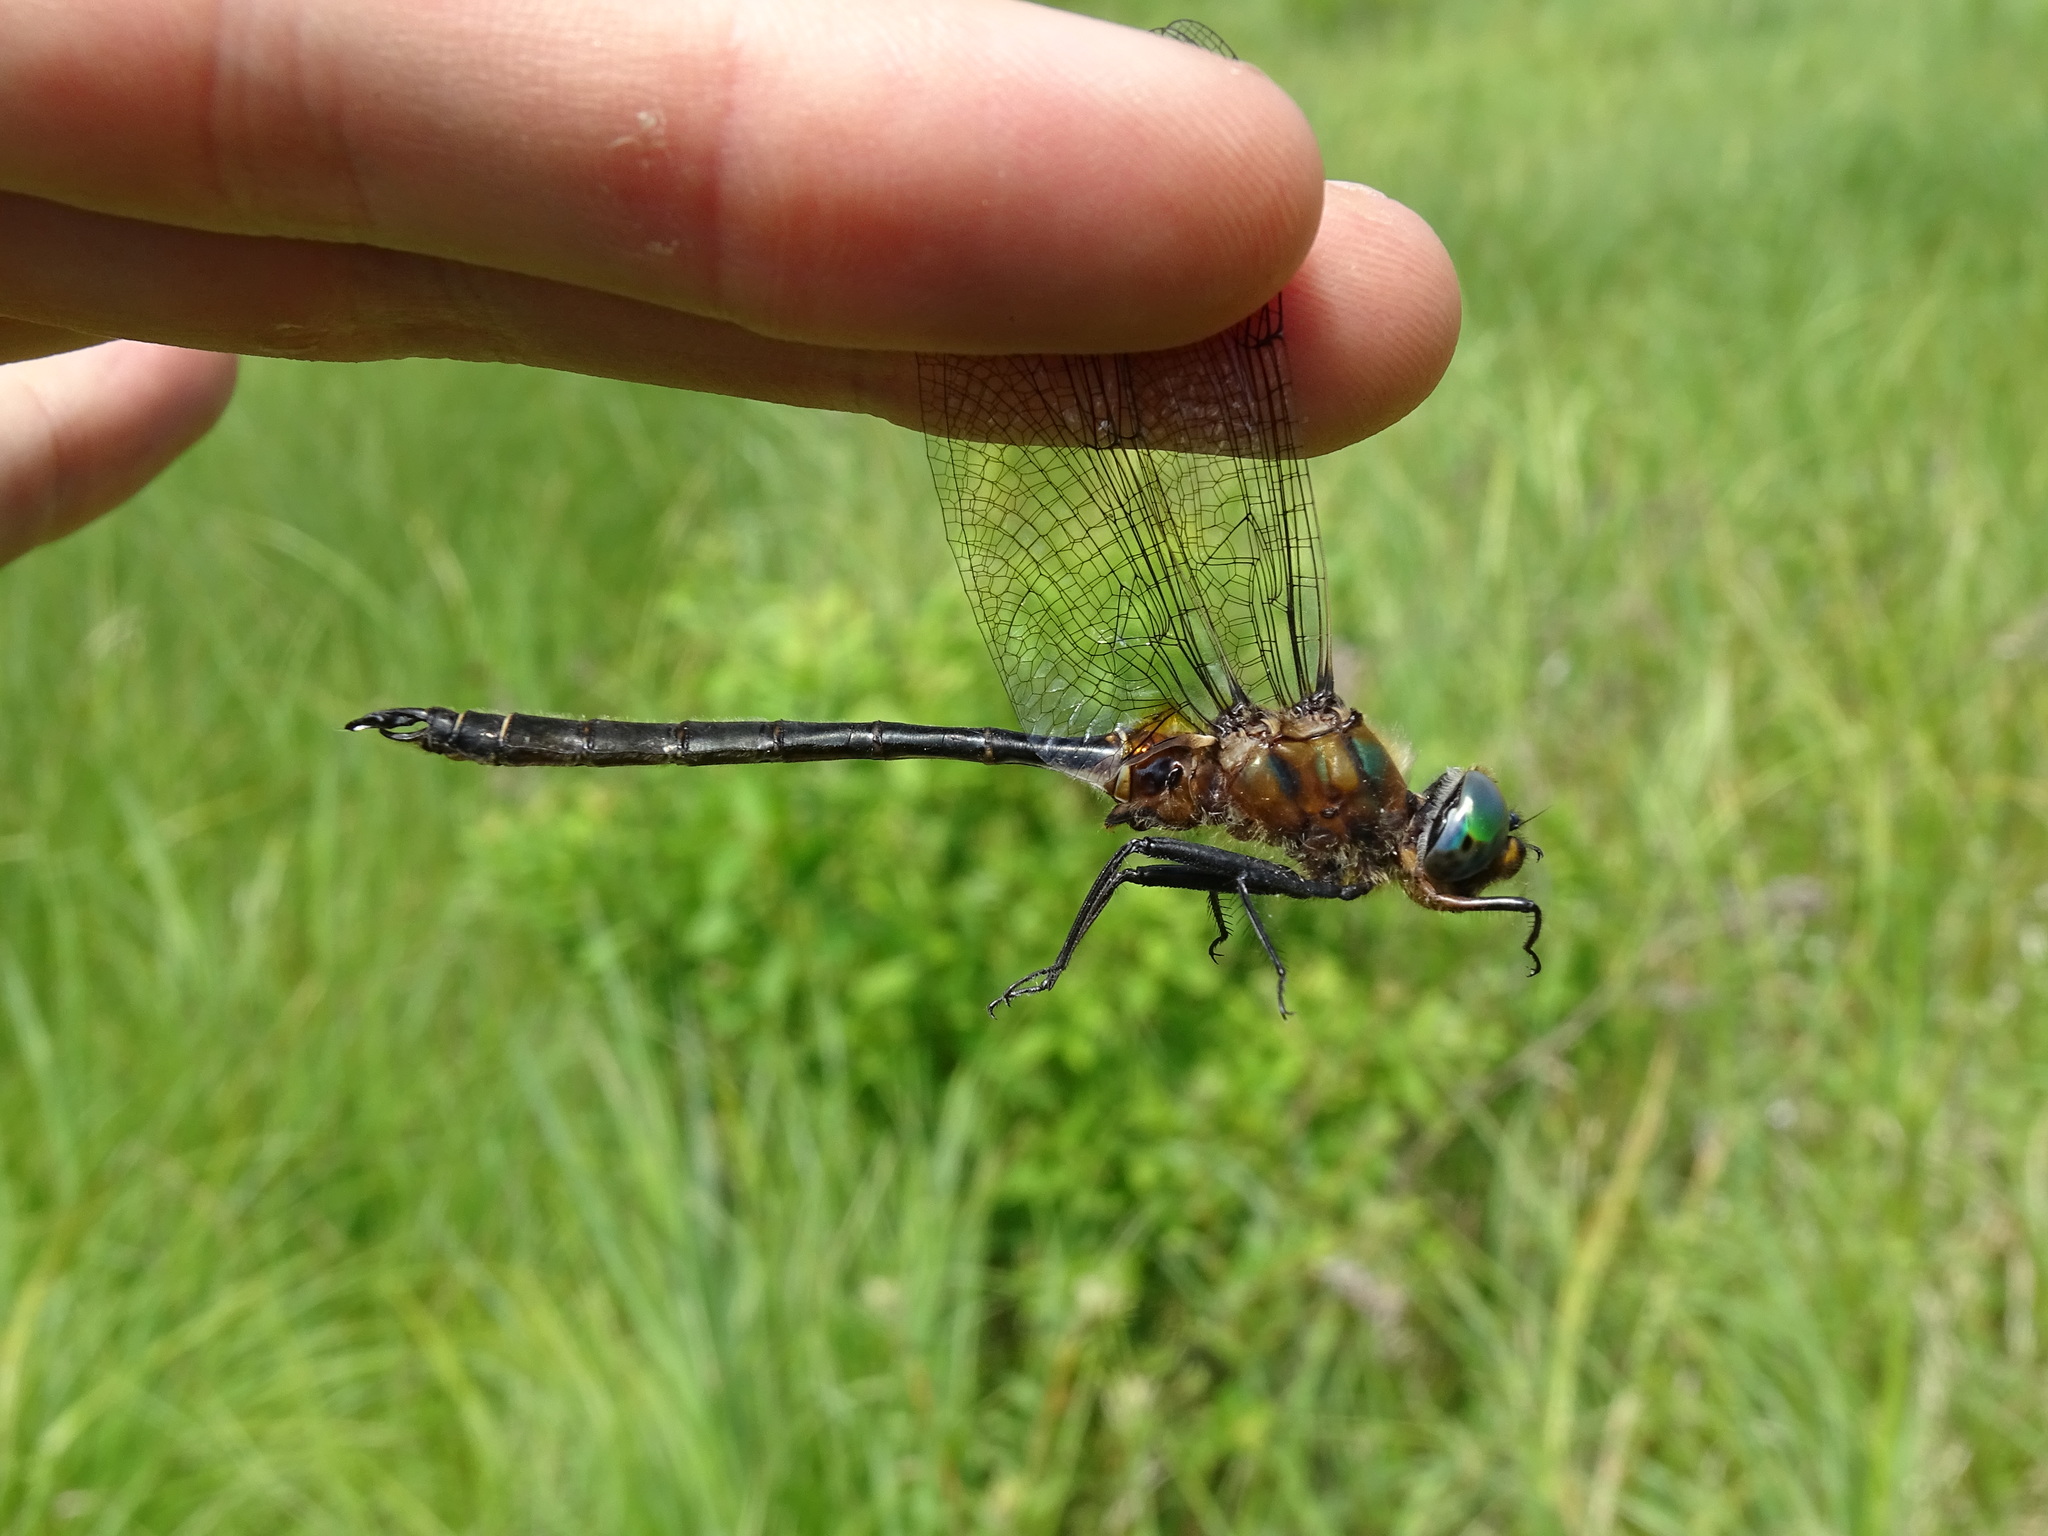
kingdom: Animalia
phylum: Arthropoda
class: Insecta
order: Odonata
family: Corduliidae
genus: Somatochlora
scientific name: Somatochlora kennedyi
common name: Kennedy's emerald
